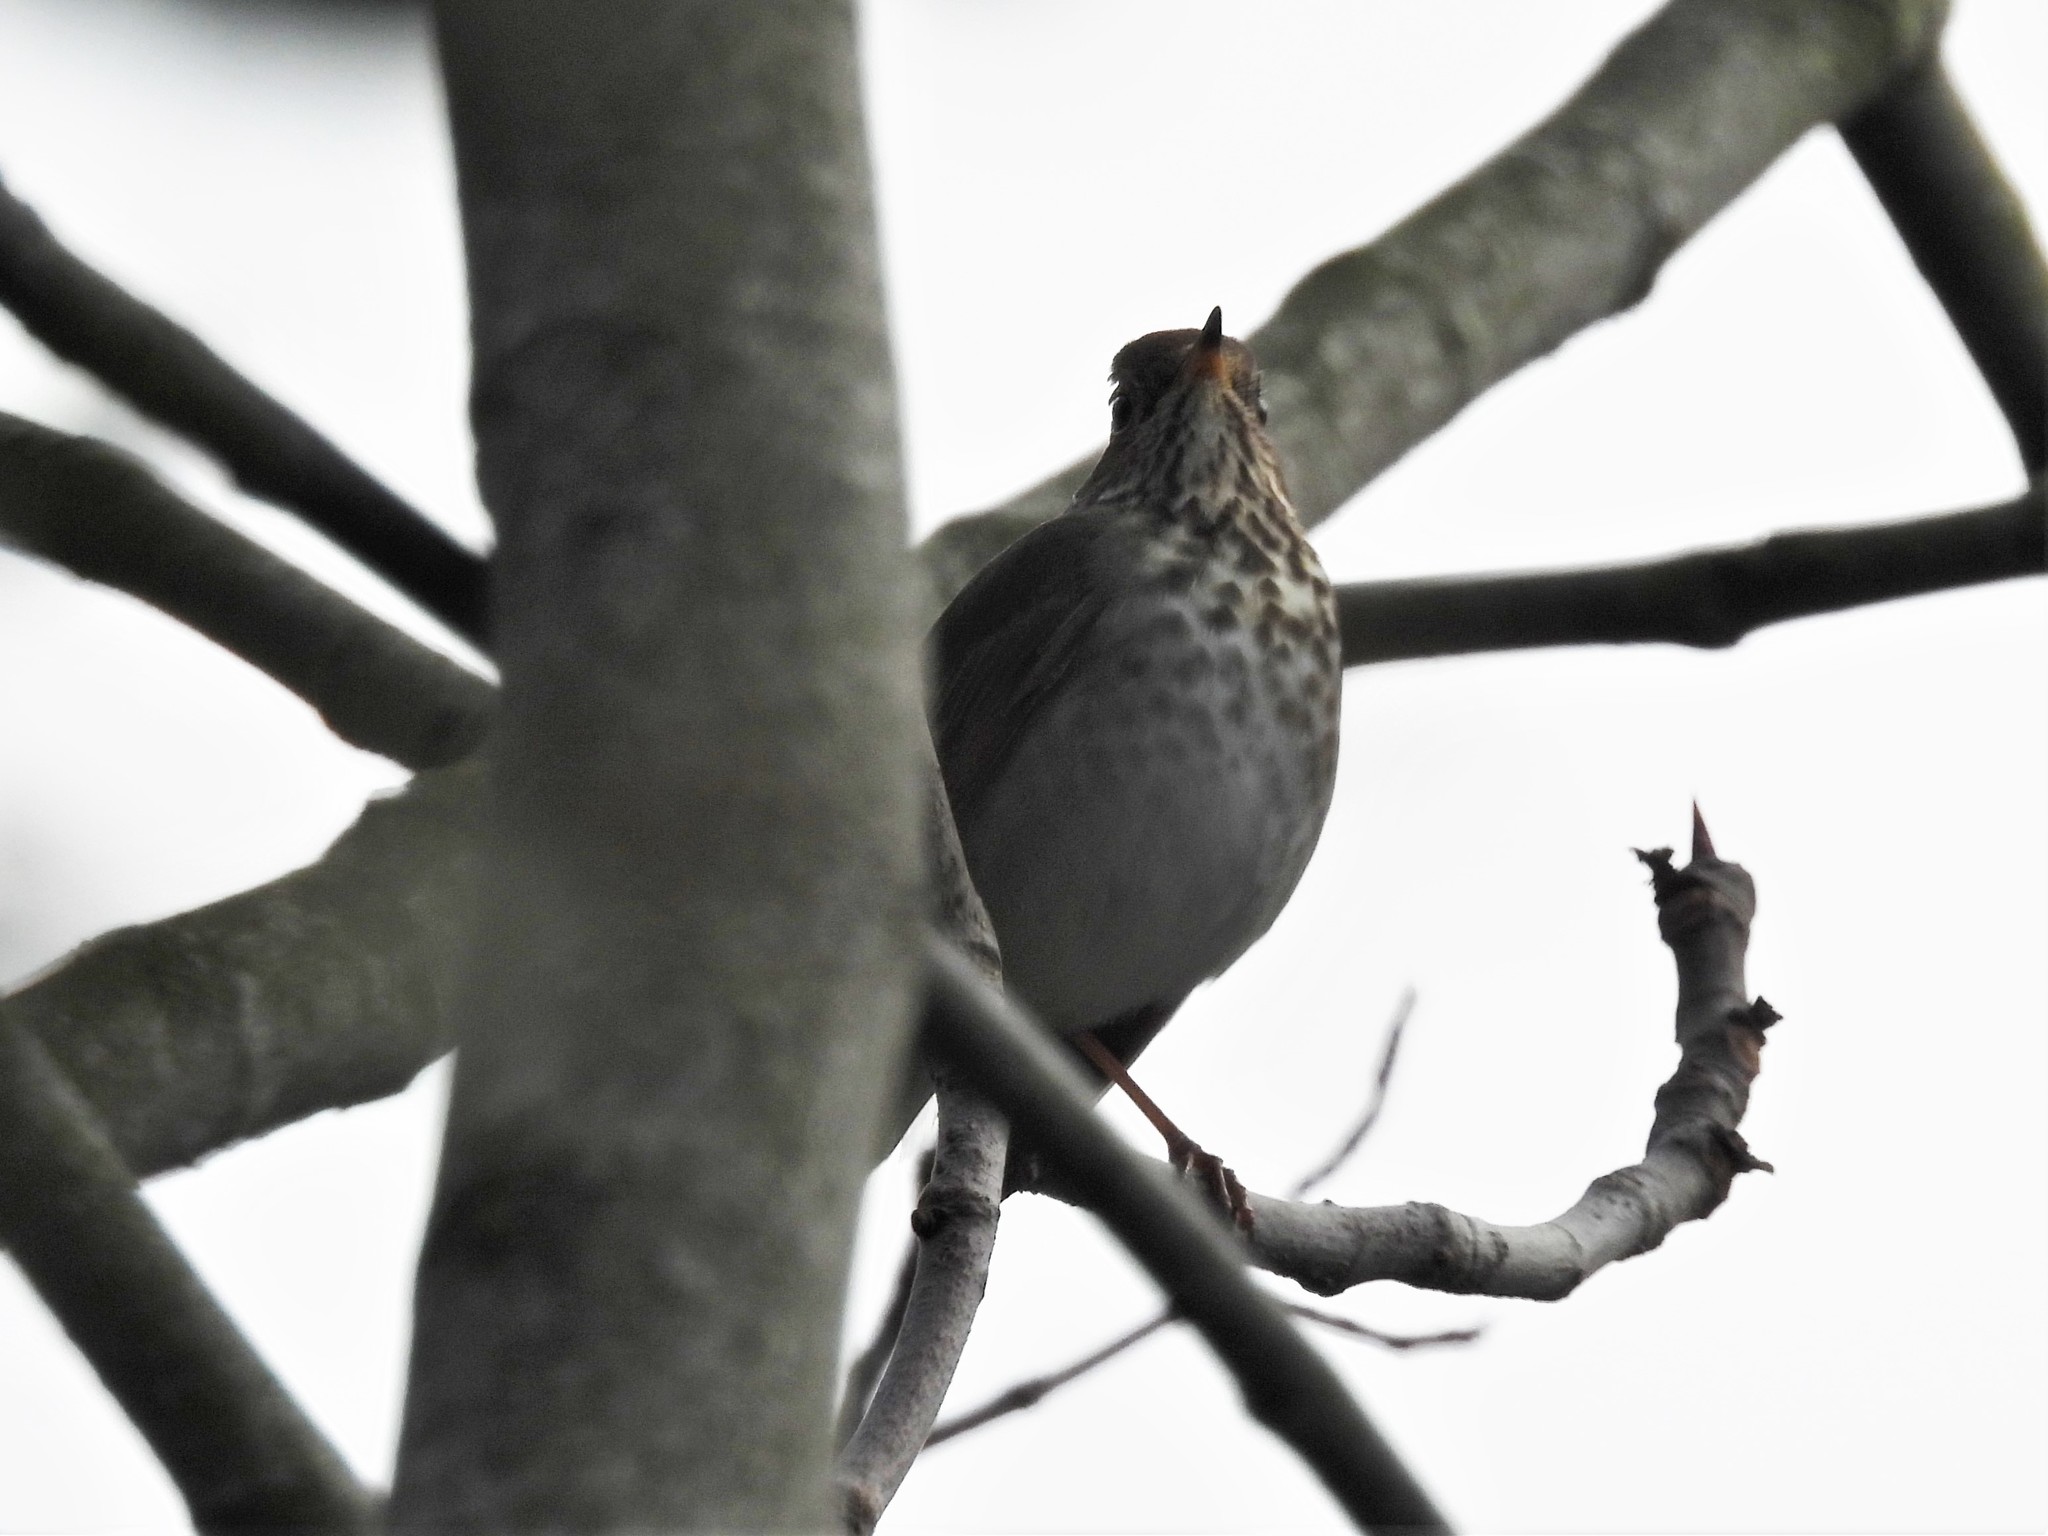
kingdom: Animalia
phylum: Chordata
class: Aves
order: Passeriformes
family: Turdidae
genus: Catharus
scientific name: Catharus guttatus
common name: Hermit thrush
